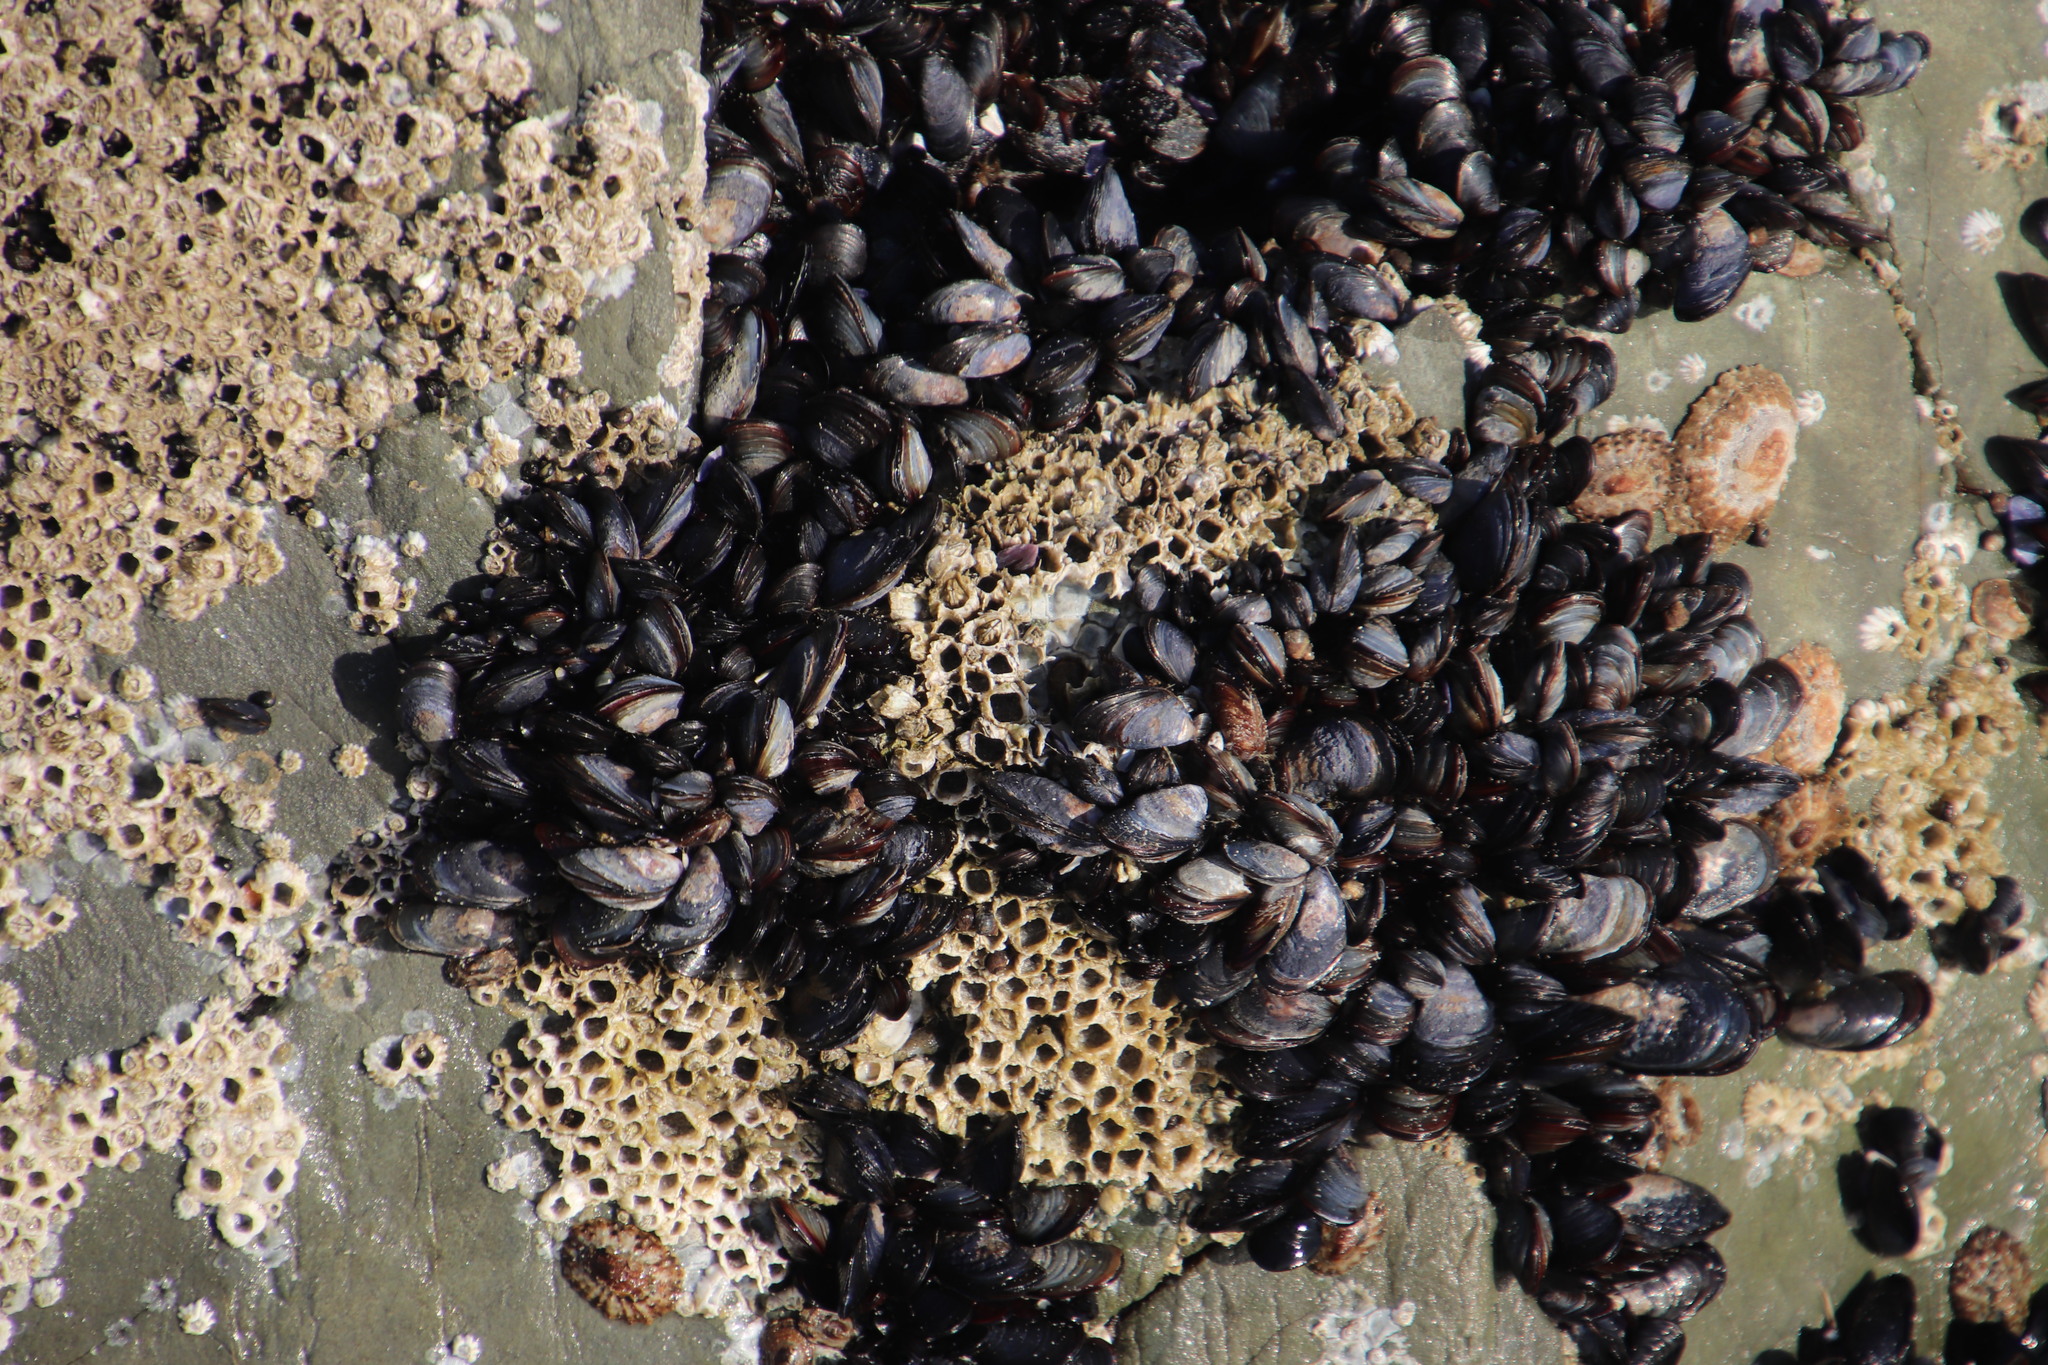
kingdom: Animalia
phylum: Mollusca
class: Bivalvia
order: Mytilida
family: Mytilidae
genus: Mytilus
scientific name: Mytilus galloprovincialis
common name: Mediterranean mussel
